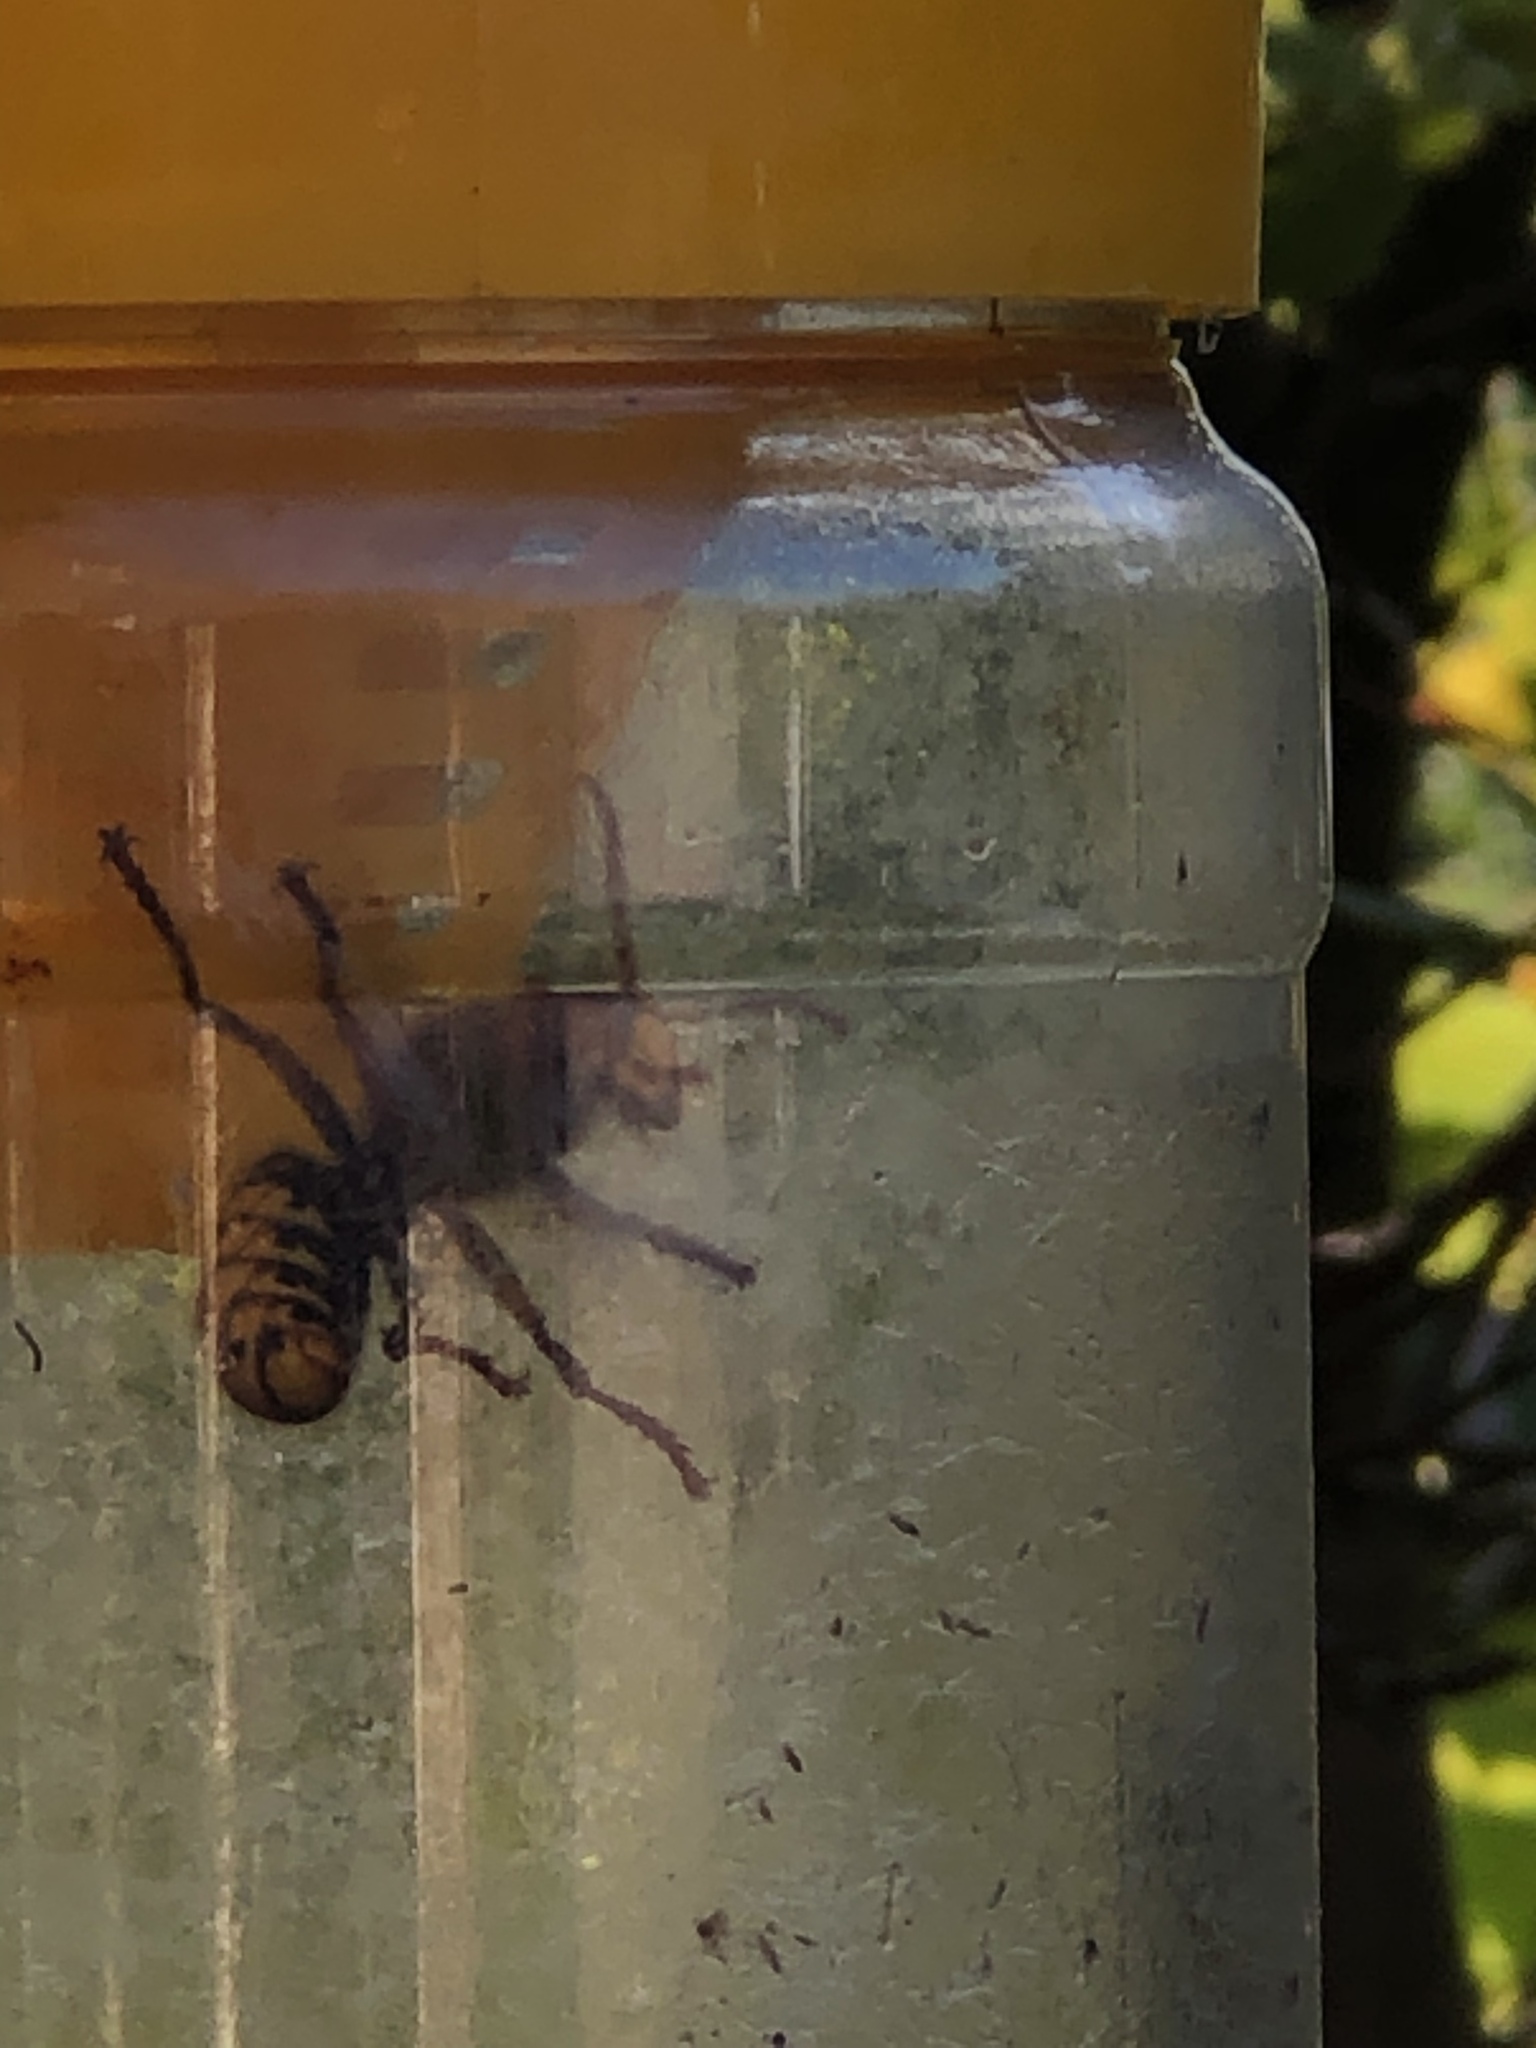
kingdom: Animalia
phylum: Arthropoda
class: Insecta
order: Hymenoptera
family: Vespidae
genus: Vespa
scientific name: Vespa crabro
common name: Hornet
